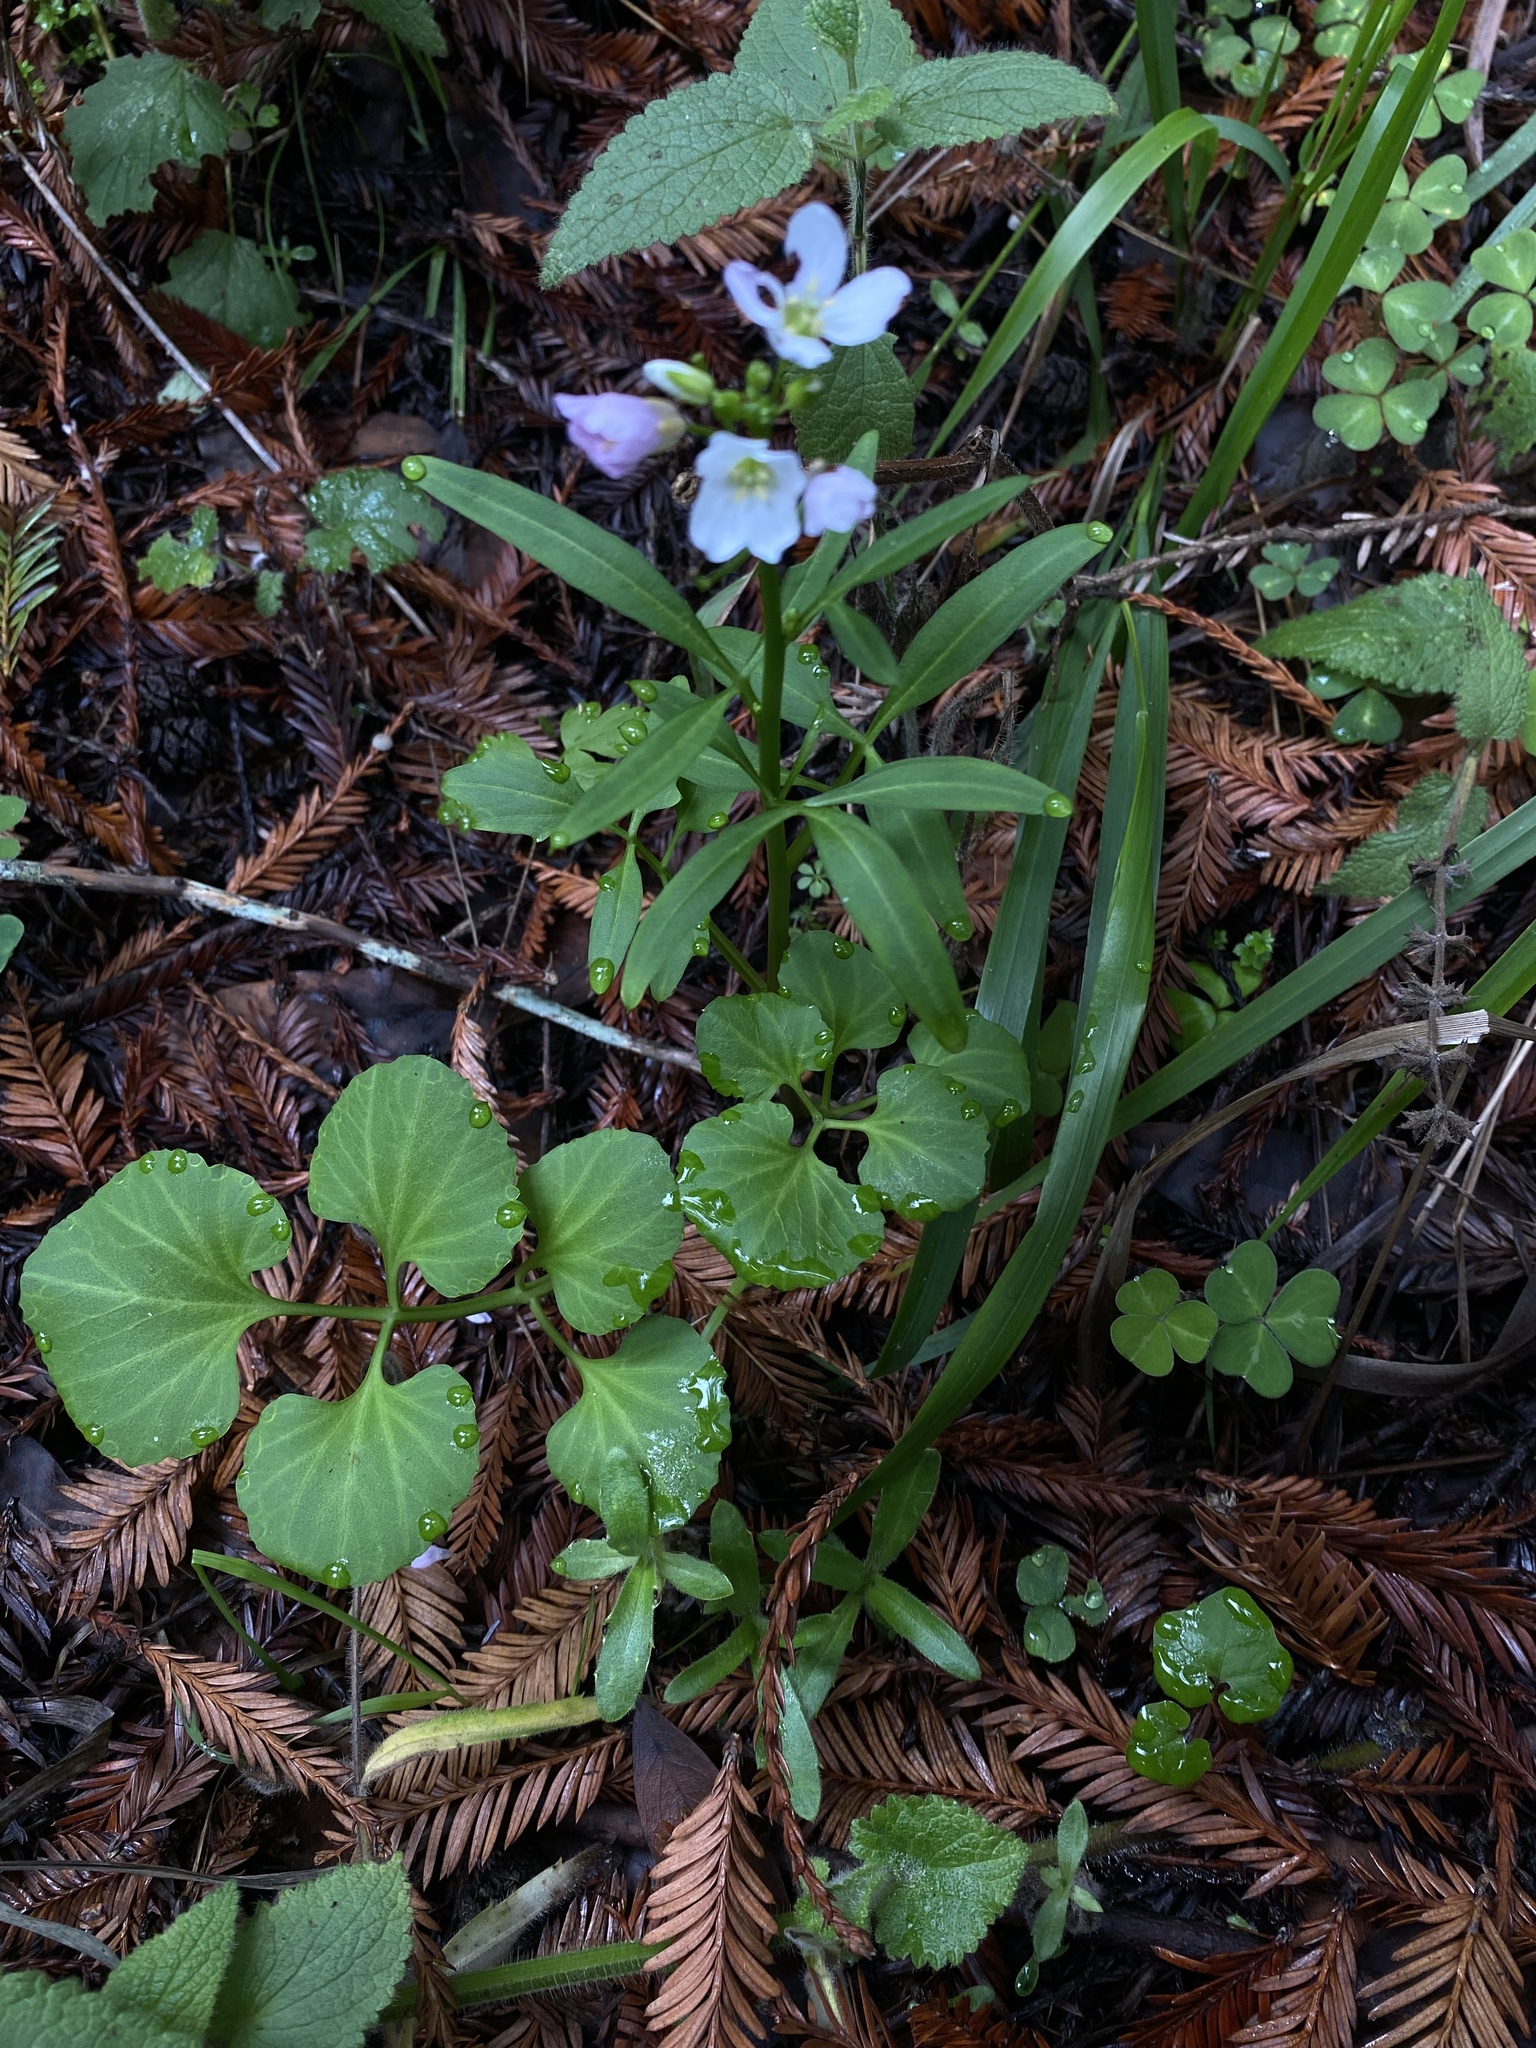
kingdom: Plantae
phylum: Tracheophyta
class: Magnoliopsida
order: Brassicales
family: Brassicaceae
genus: Cardamine
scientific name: Cardamine californica
